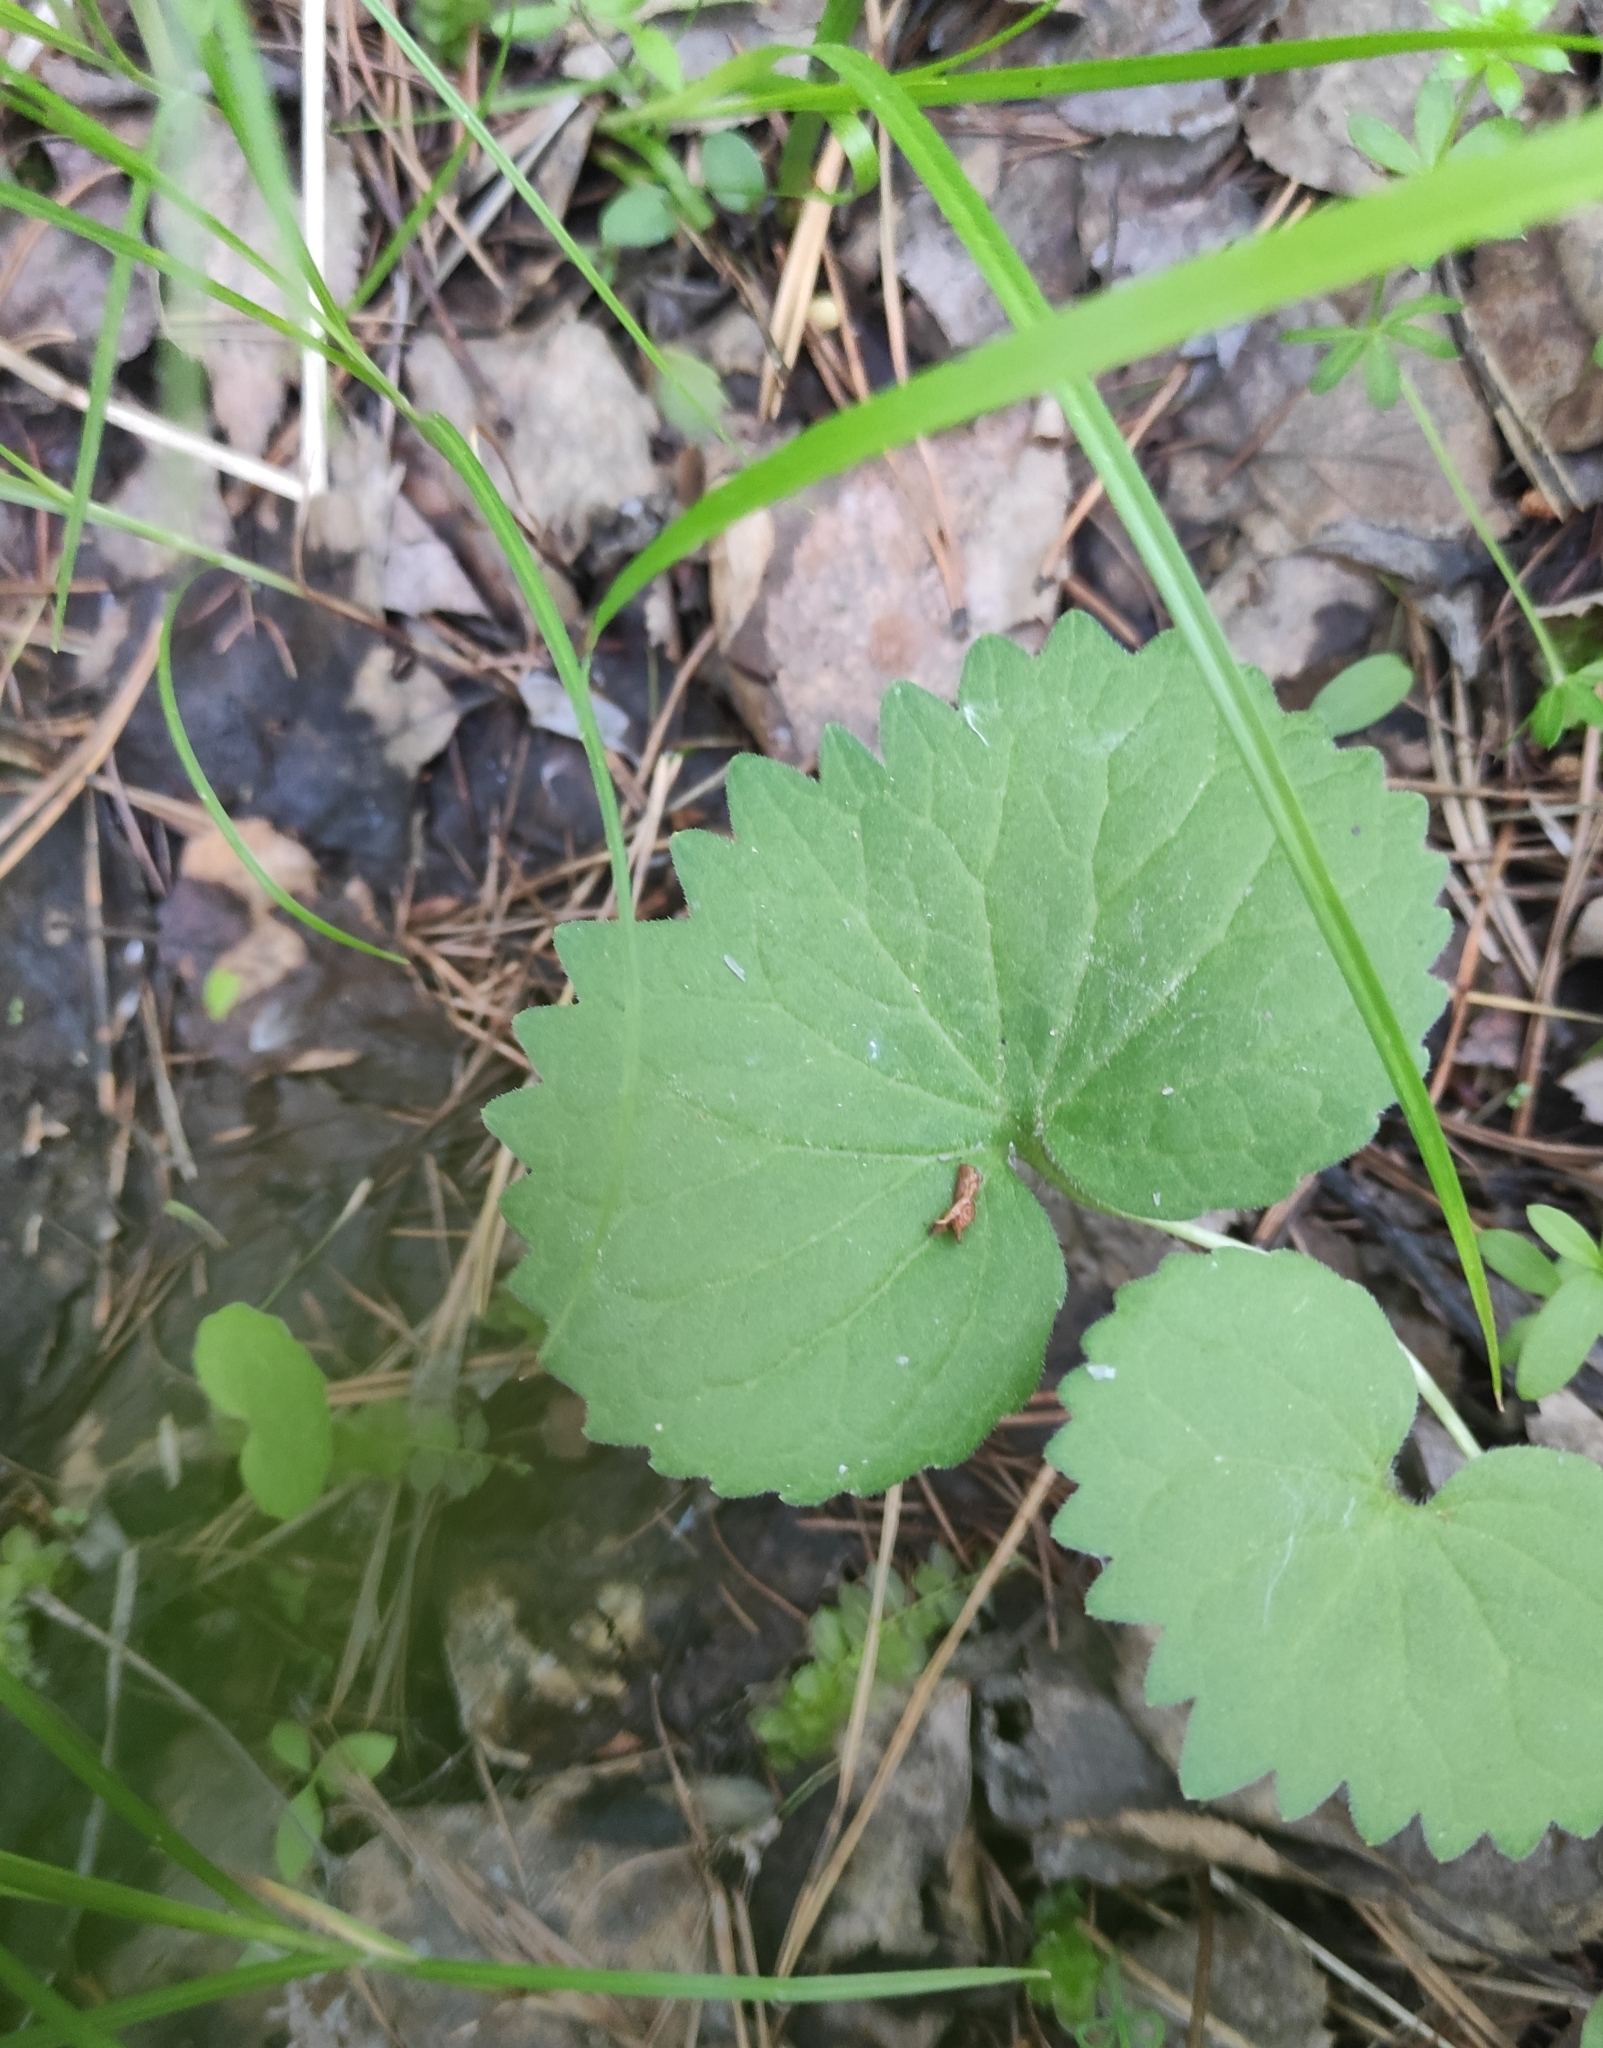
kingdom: Plantae
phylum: Tracheophyta
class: Magnoliopsida
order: Malpighiales
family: Violaceae
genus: Viola
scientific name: Viola uniflora
